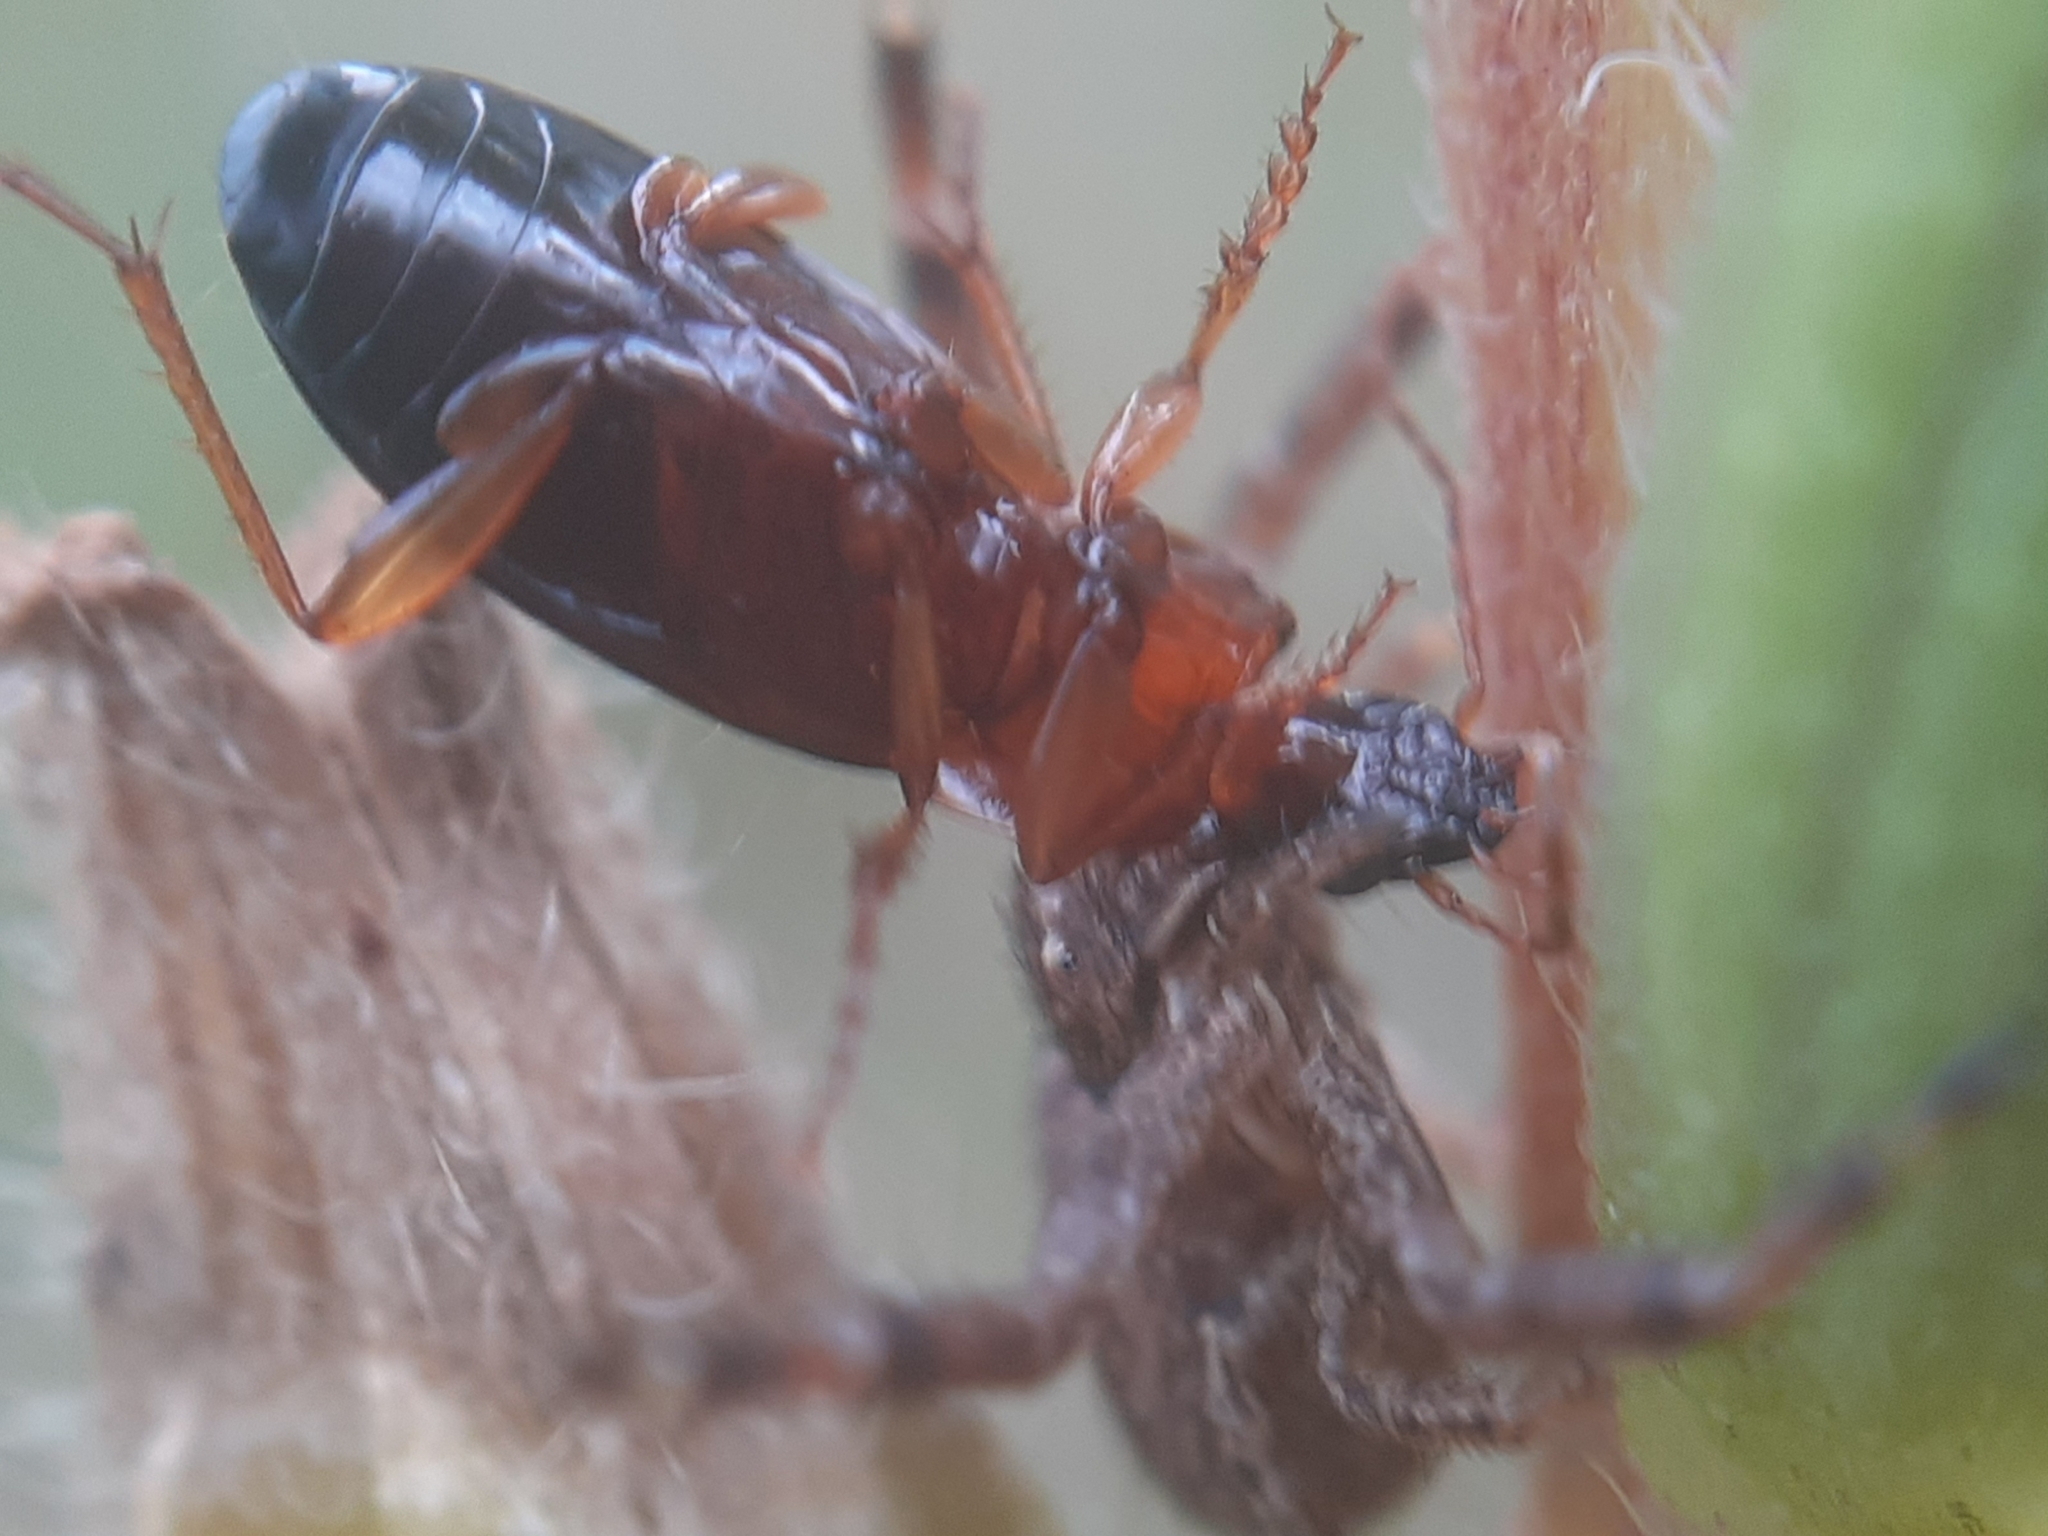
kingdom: Animalia
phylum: Arthropoda
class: Insecta
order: Coleoptera
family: Carabidae
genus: Calathus
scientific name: Calathus melanocephalus
